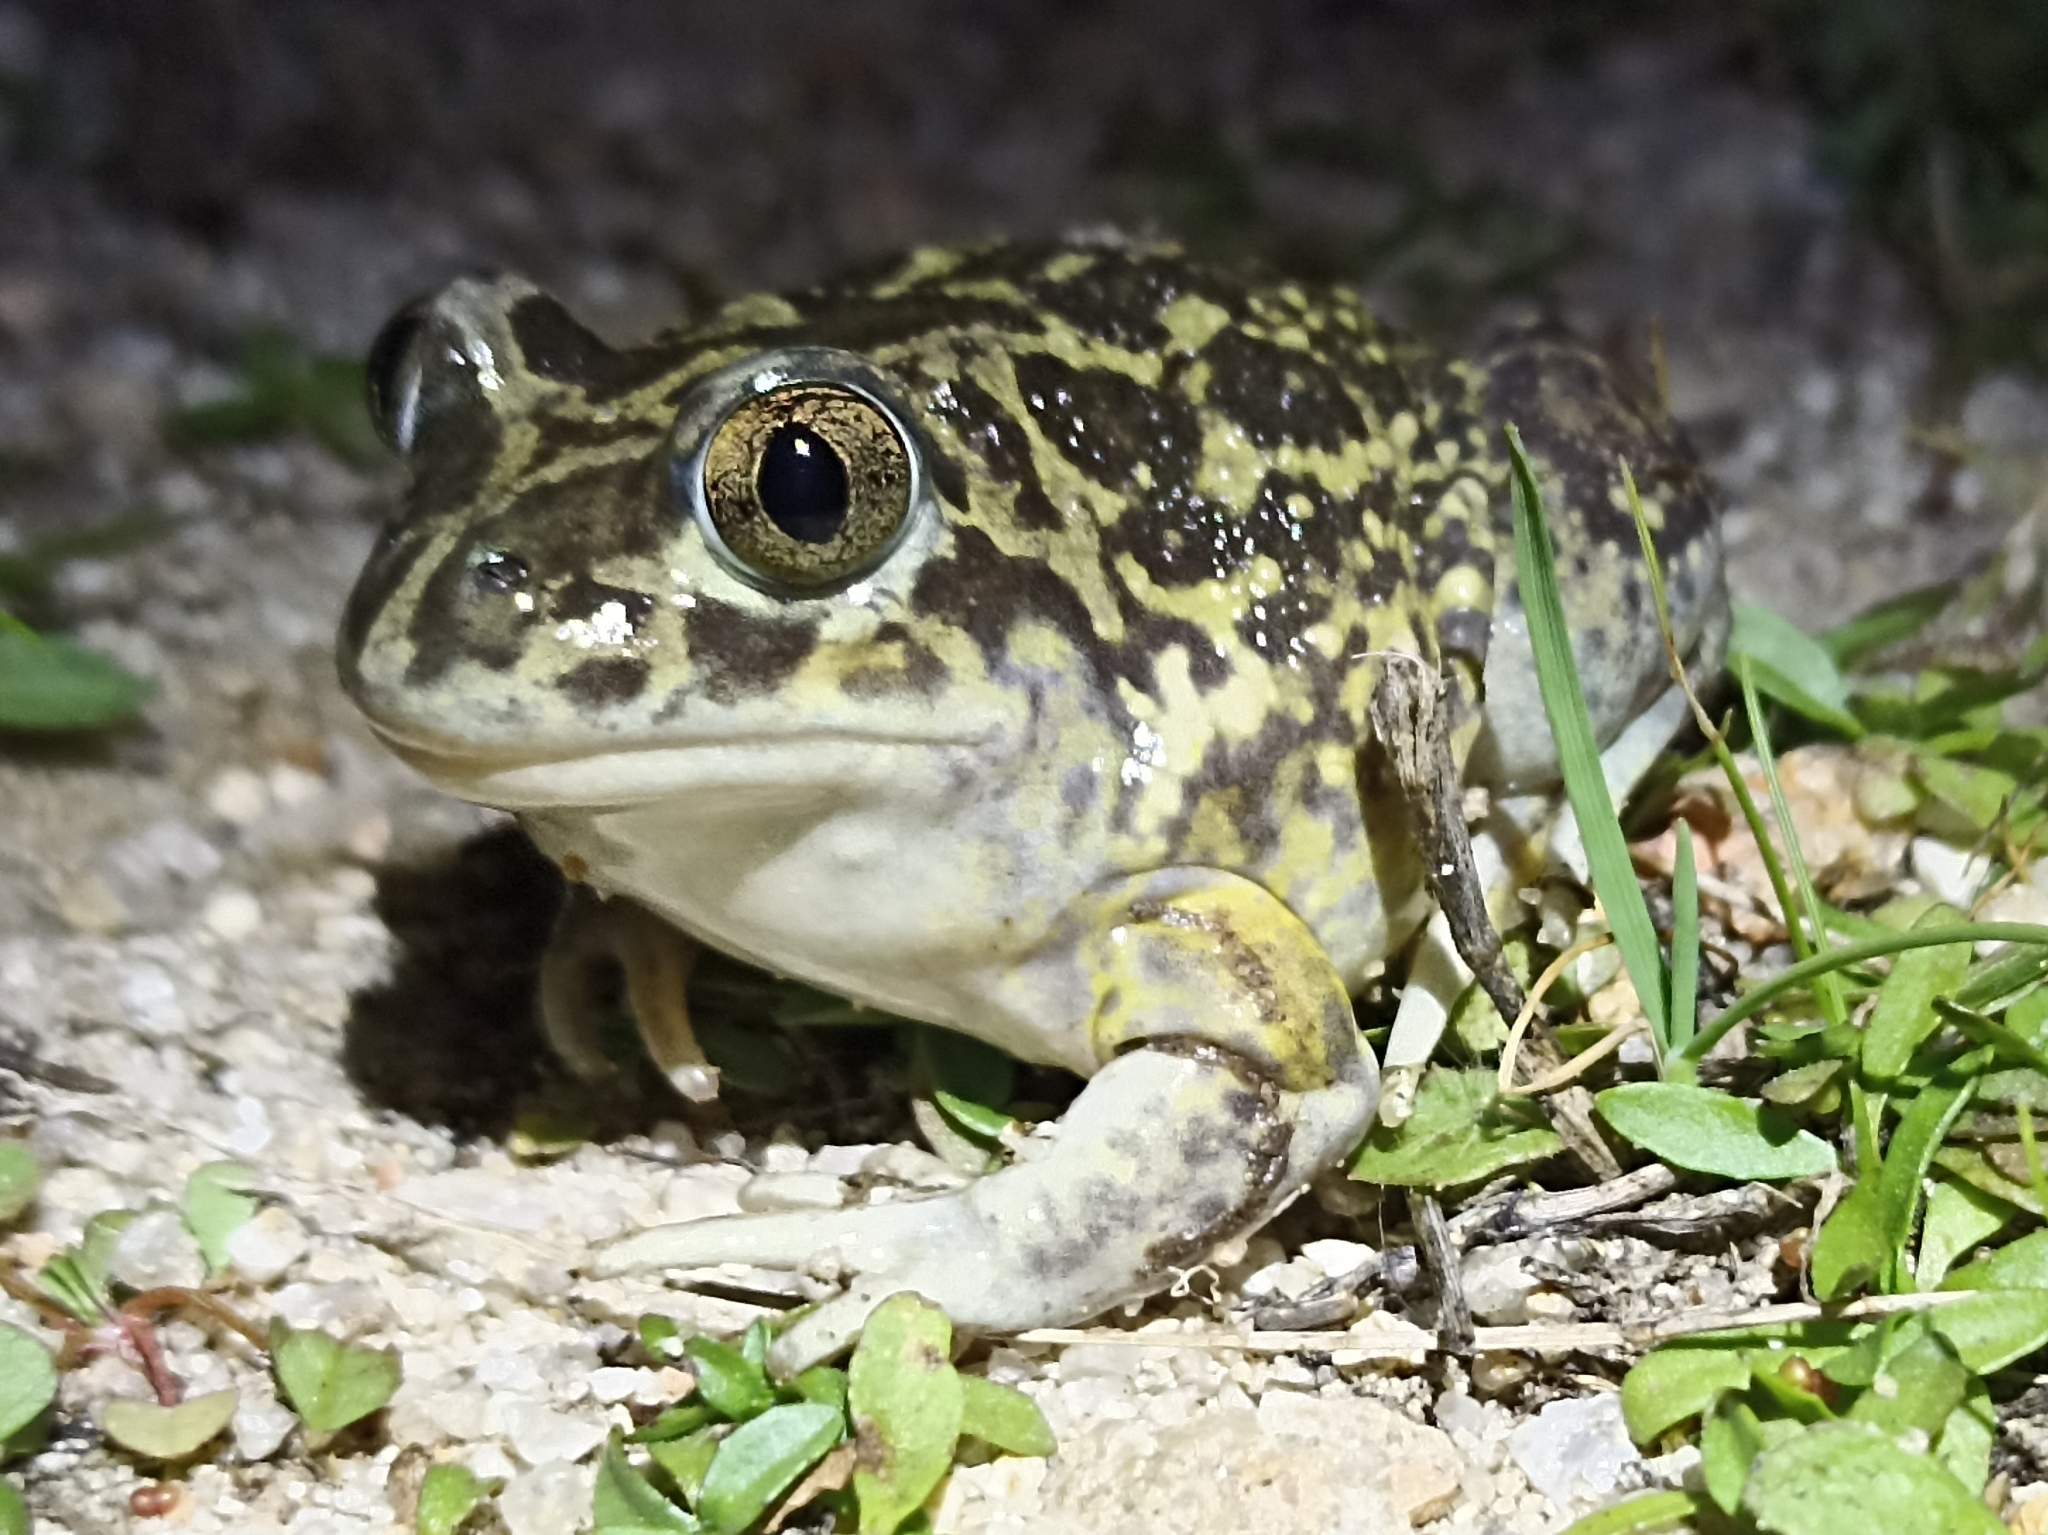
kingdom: Animalia
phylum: Chordata
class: Amphibia
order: Anura
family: Pelobatidae
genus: Pelobates
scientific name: Pelobates cultripes
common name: Western spadefoot
